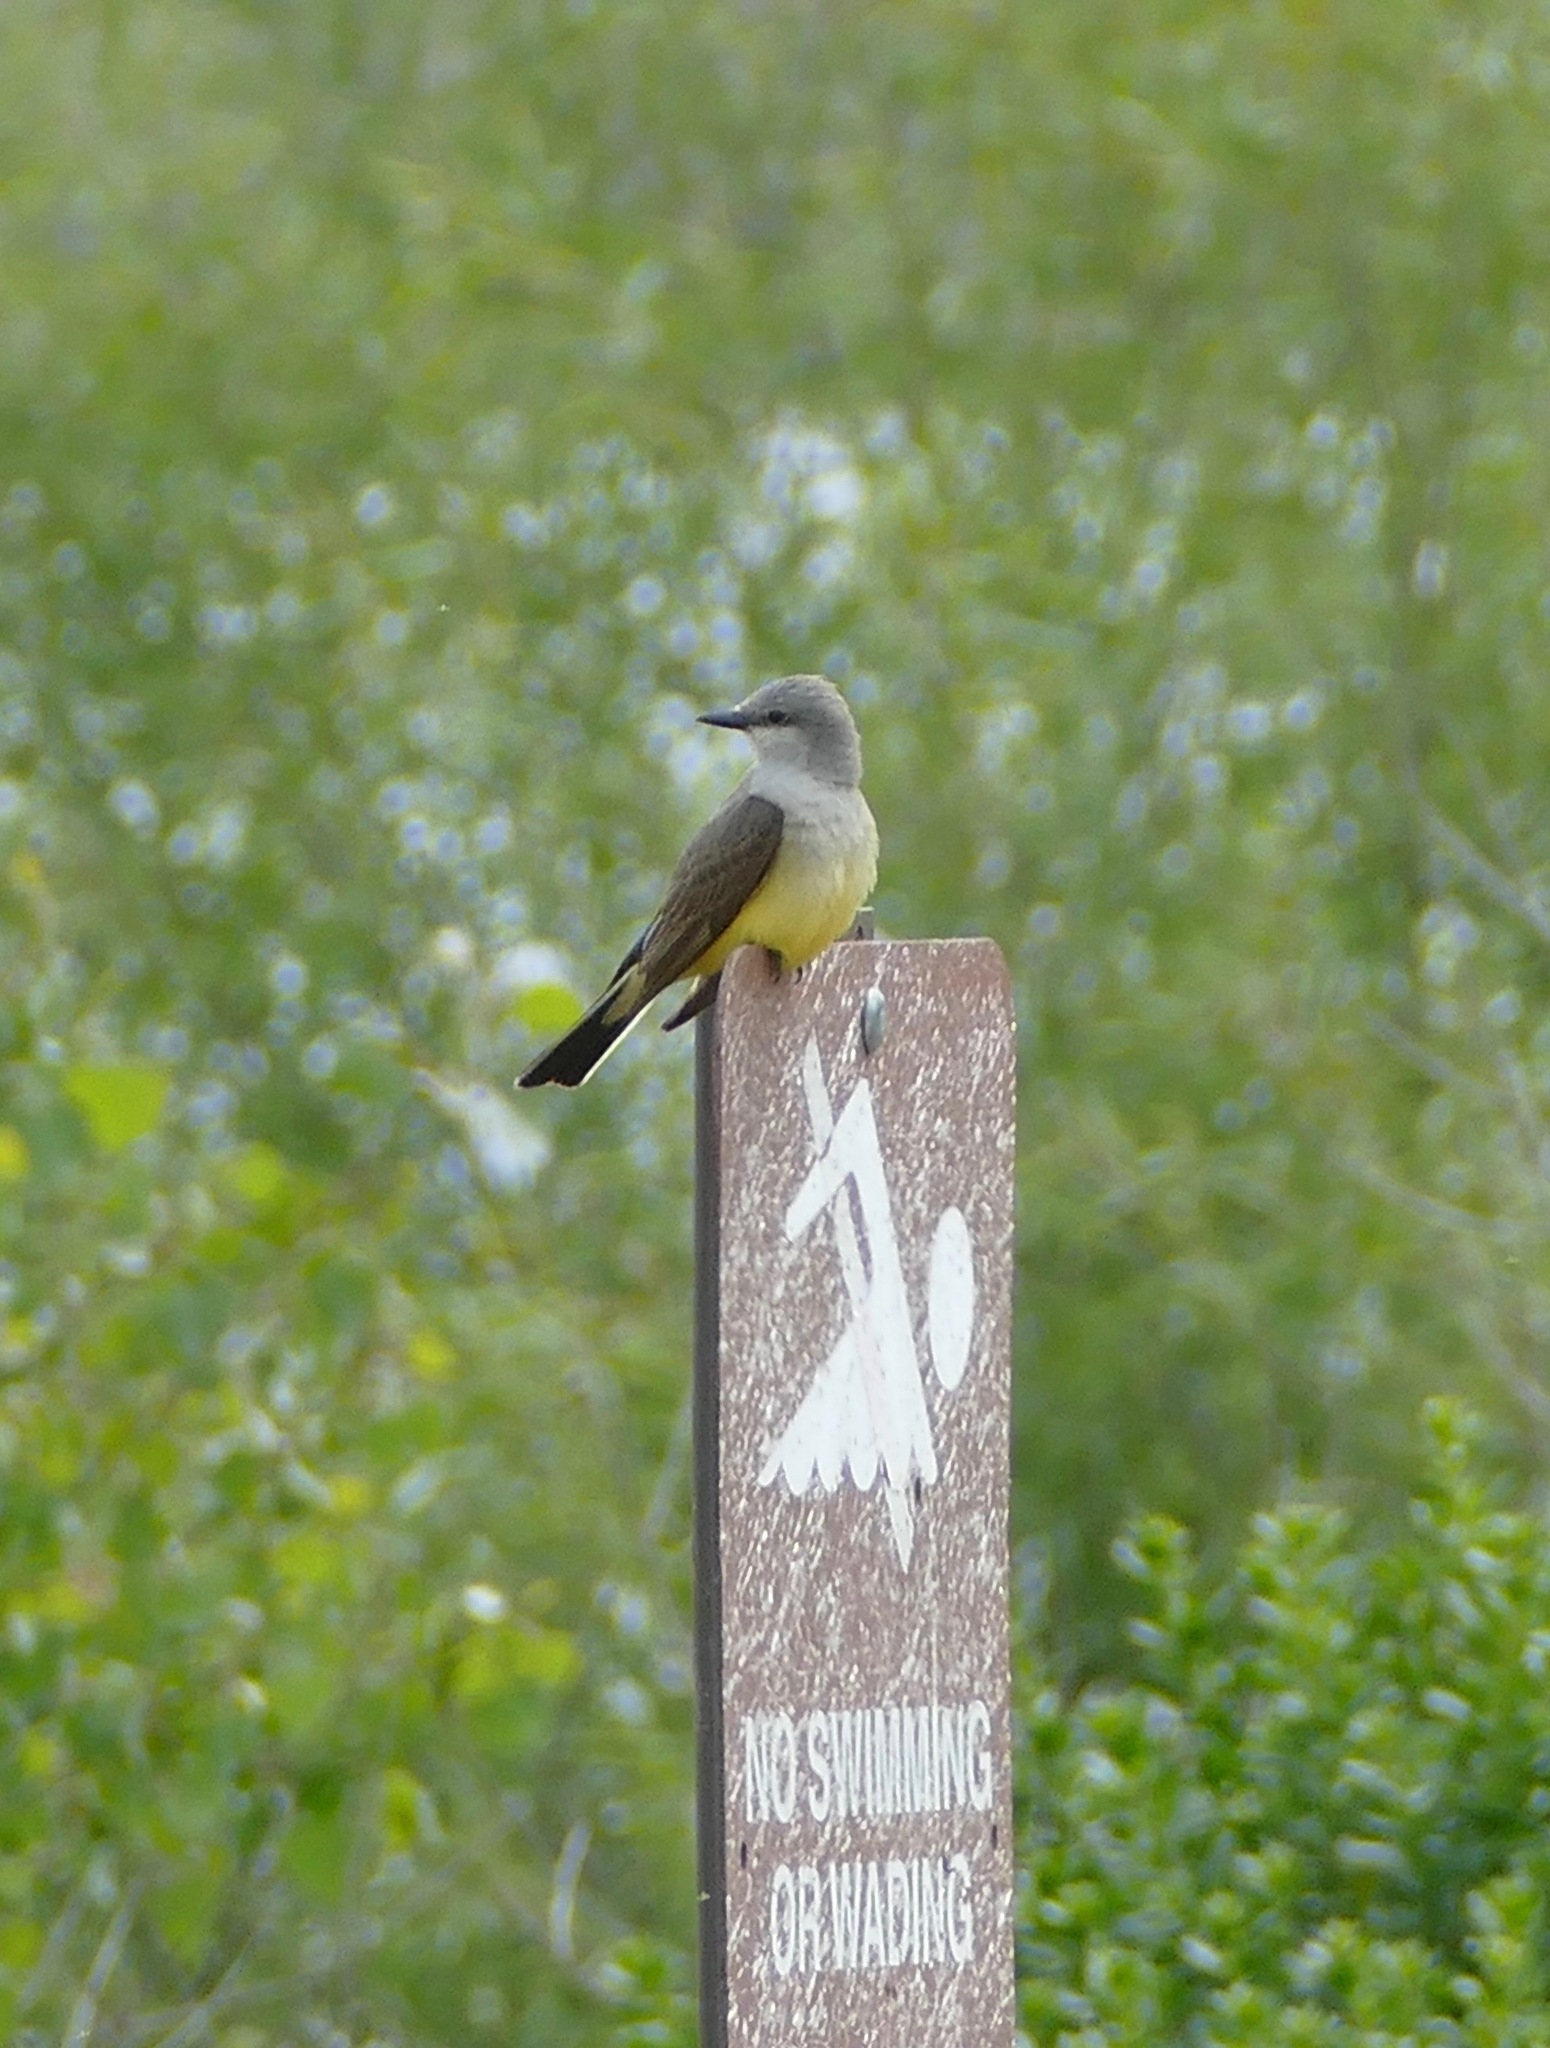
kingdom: Animalia
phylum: Chordata
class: Aves
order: Passeriformes
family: Tyrannidae
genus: Tyrannus
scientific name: Tyrannus verticalis
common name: Western kingbird
